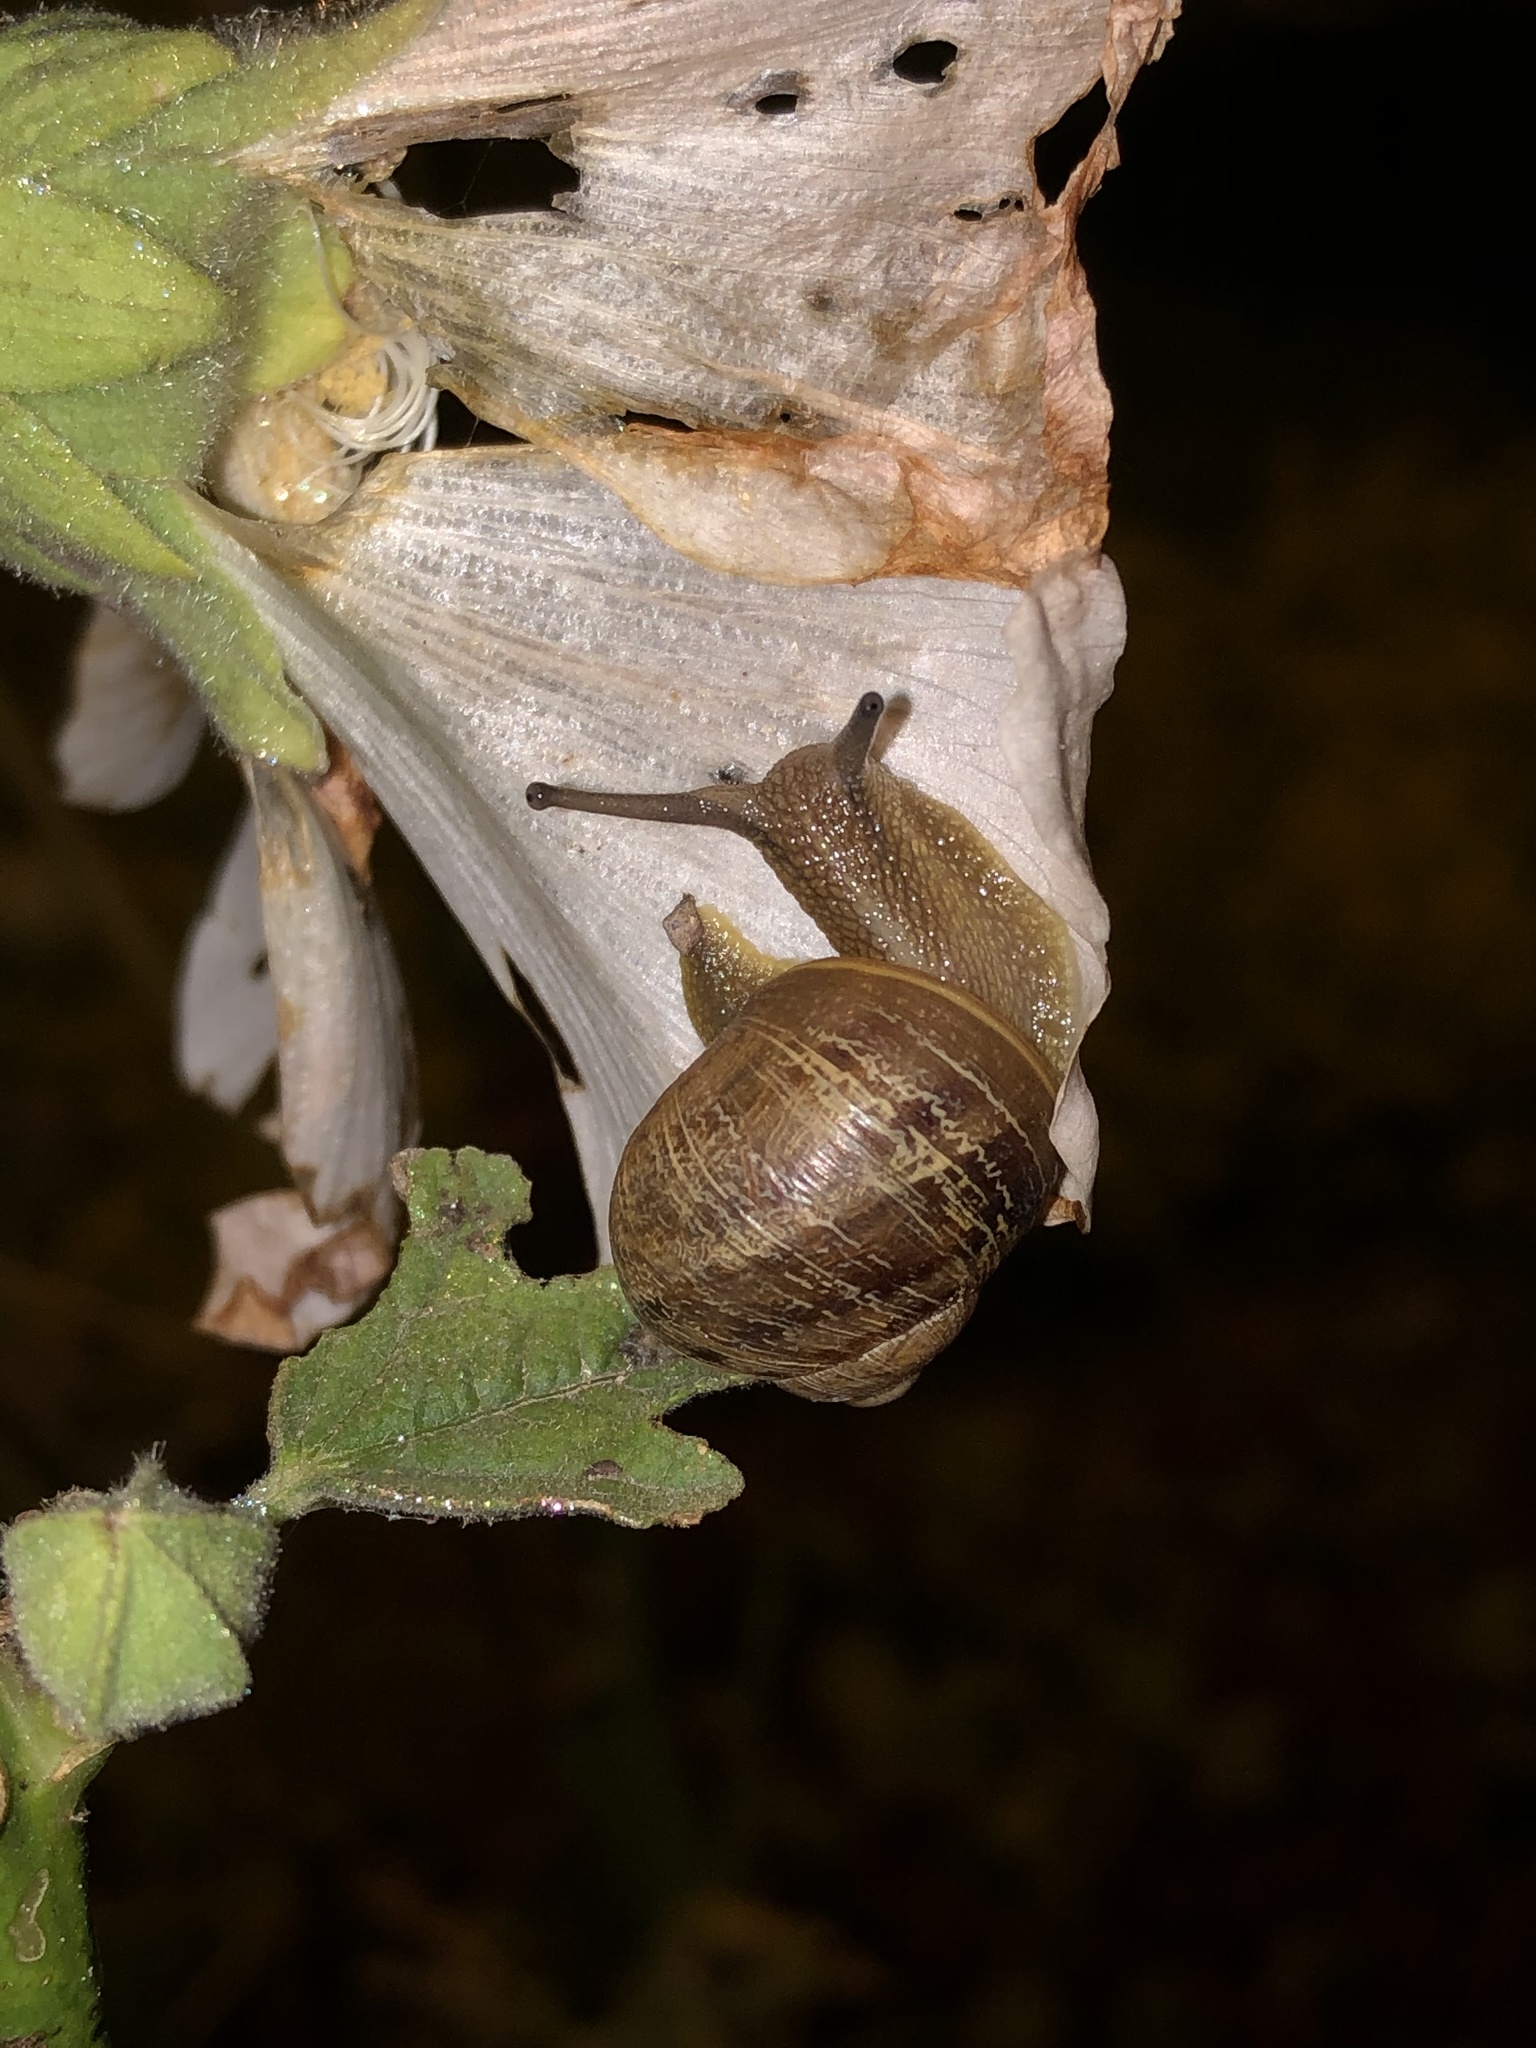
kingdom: Animalia
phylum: Mollusca
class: Gastropoda
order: Stylommatophora
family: Helicidae
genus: Cornu
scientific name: Cornu aspersum
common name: Brown garden snail
